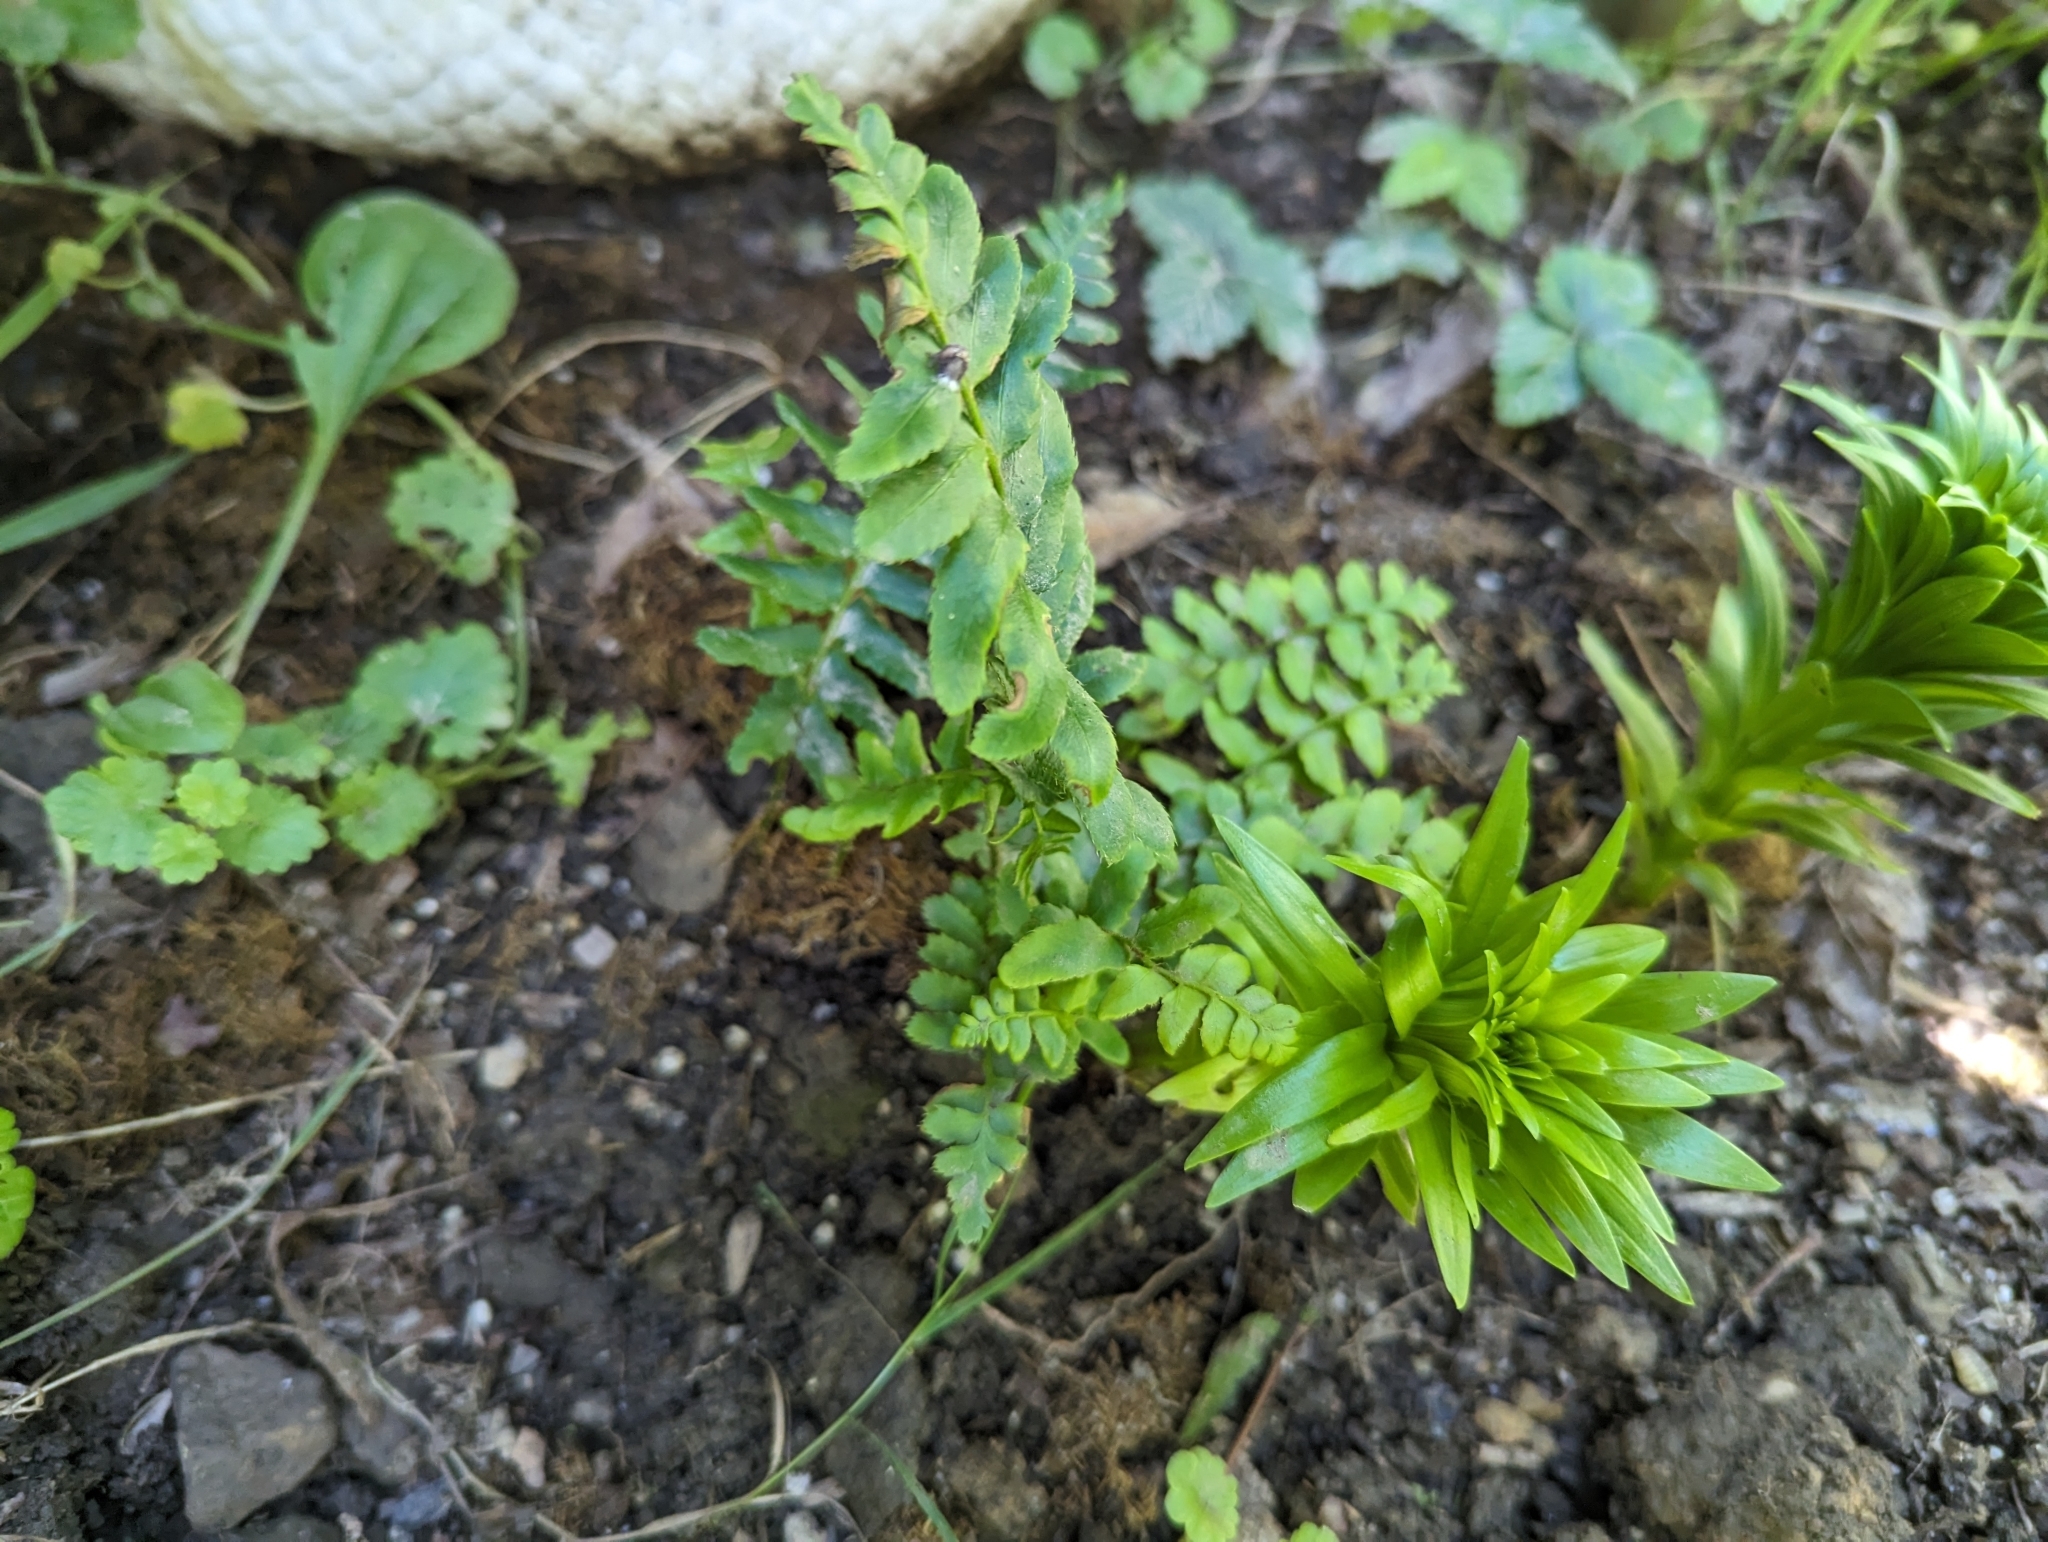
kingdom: Plantae
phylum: Tracheophyta
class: Polypodiopsida
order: Polypodiales
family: Dryopteridaceae
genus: Polystichum
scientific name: Polystichum acrostichoides
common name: Christmas fern
